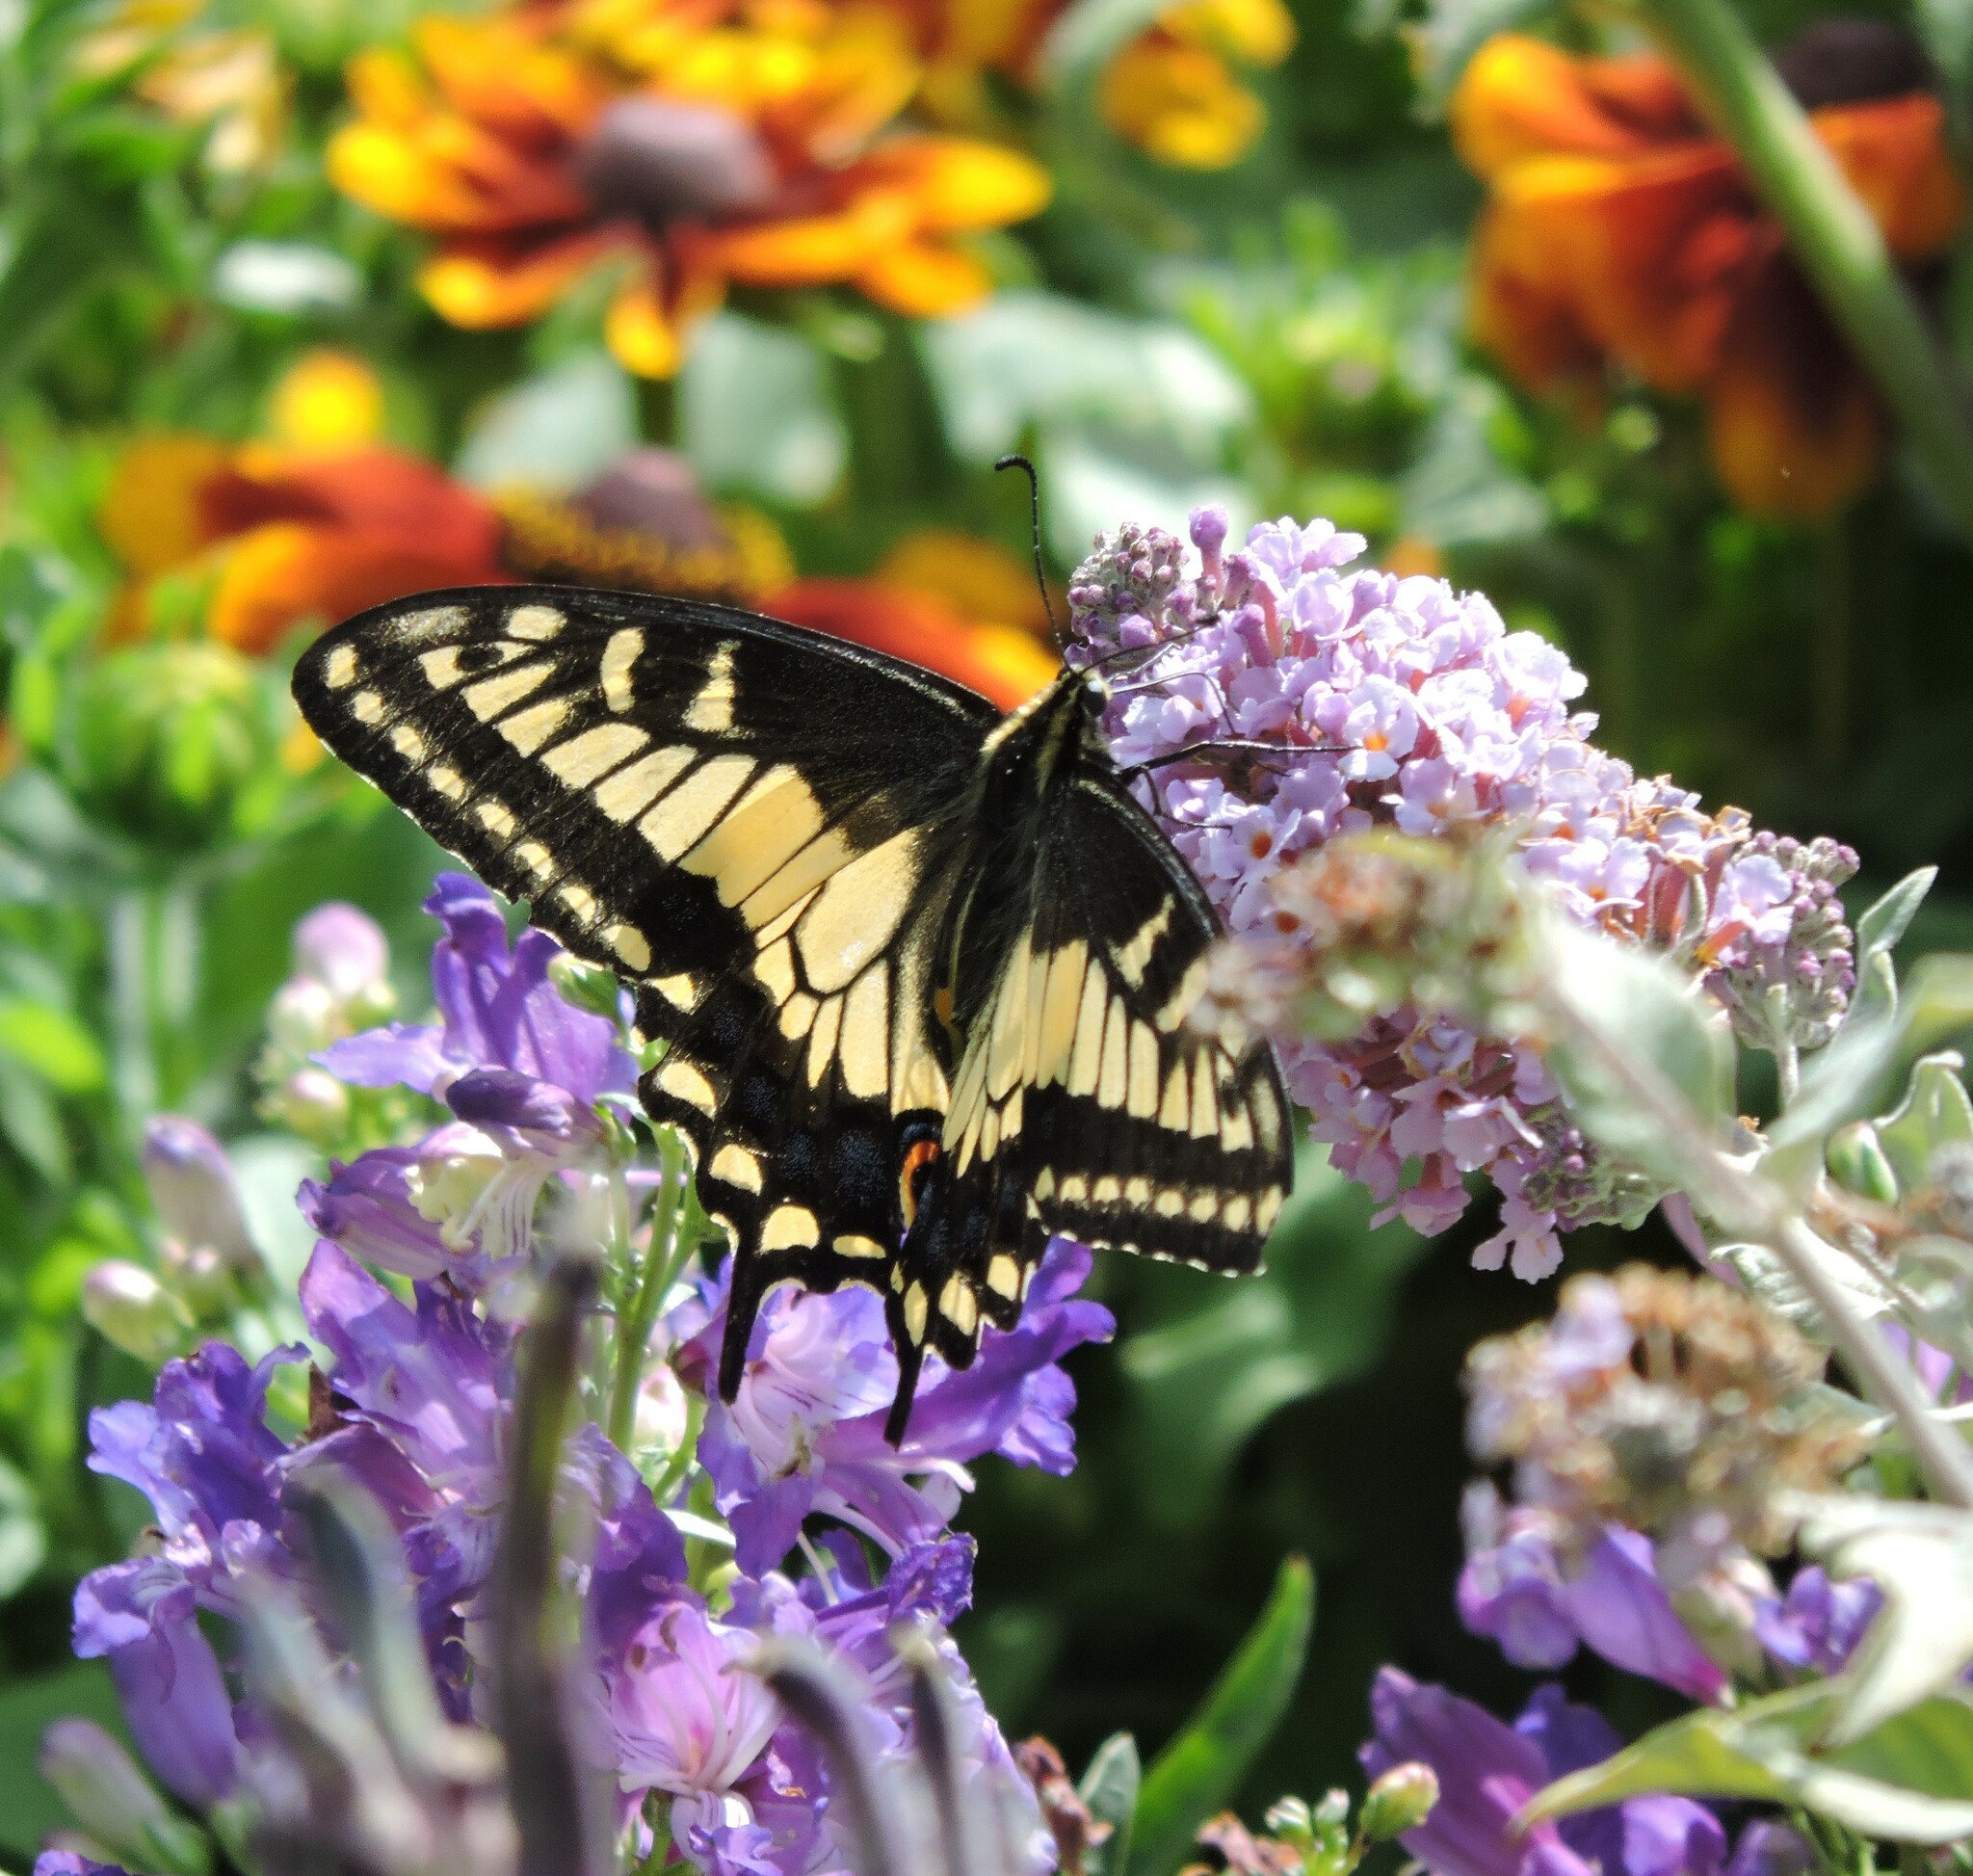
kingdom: Animalia
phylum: Arthropoda
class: Insecta
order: Lepidoptera
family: Papilionidae
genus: Papilio
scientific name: Papilio zelicaon
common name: Anise swallowtail
